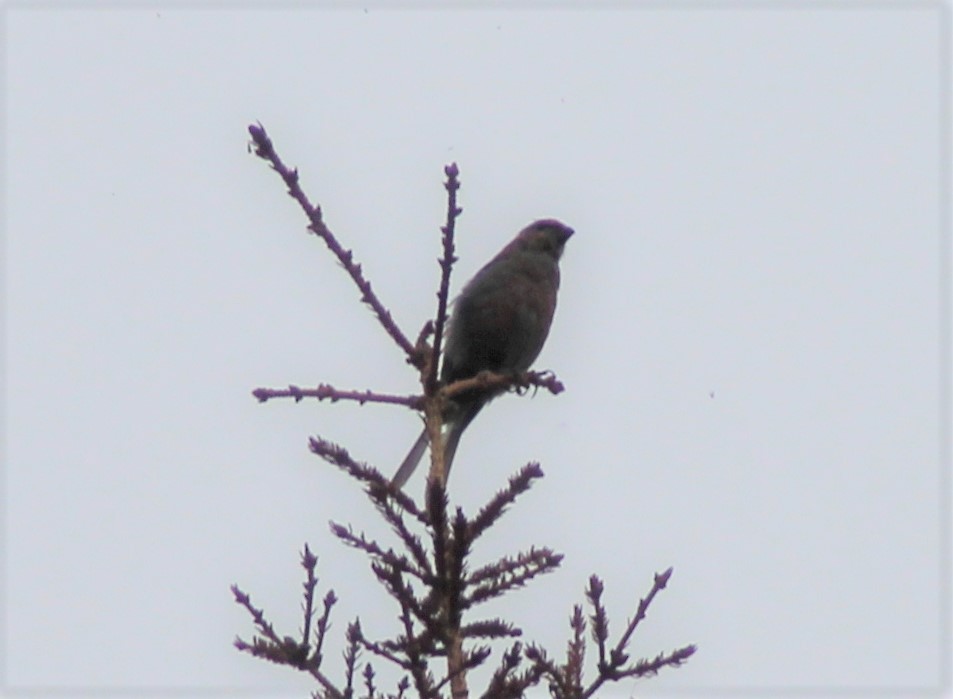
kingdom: Animalia
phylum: Chordata
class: Aves
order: Passeriformes
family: Fringillidae
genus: Pinicola
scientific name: Pinicola enucleator
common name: Pine grosbeak
